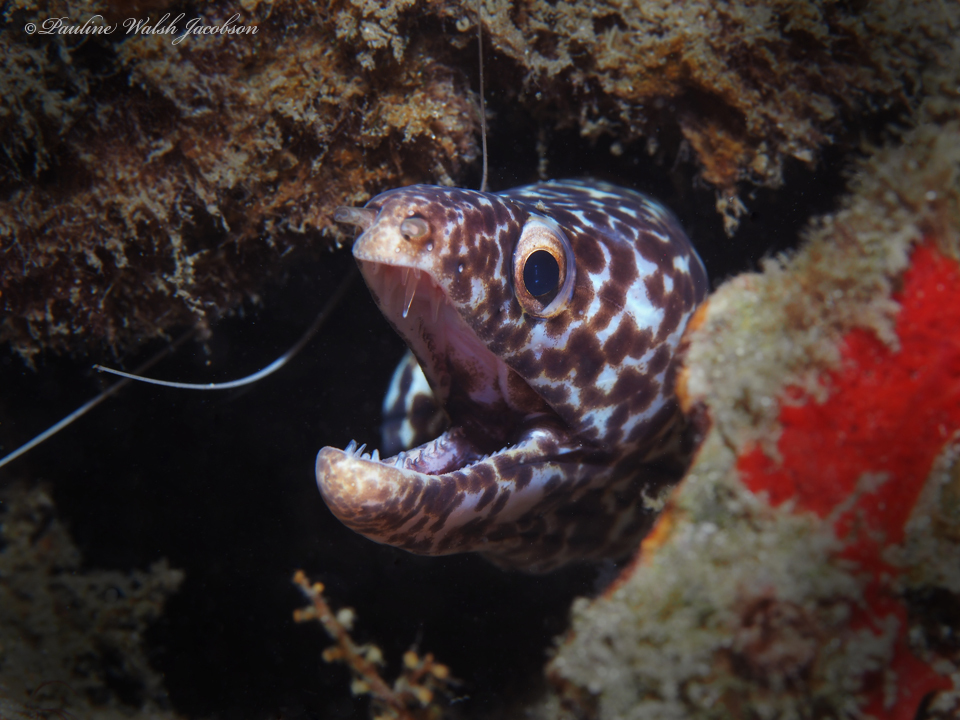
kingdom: Animalia
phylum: Chordata
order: Anguilliformes
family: Muraenidae
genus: Gymnothorax
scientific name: Gymnothorax moringa
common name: Spotted moray
